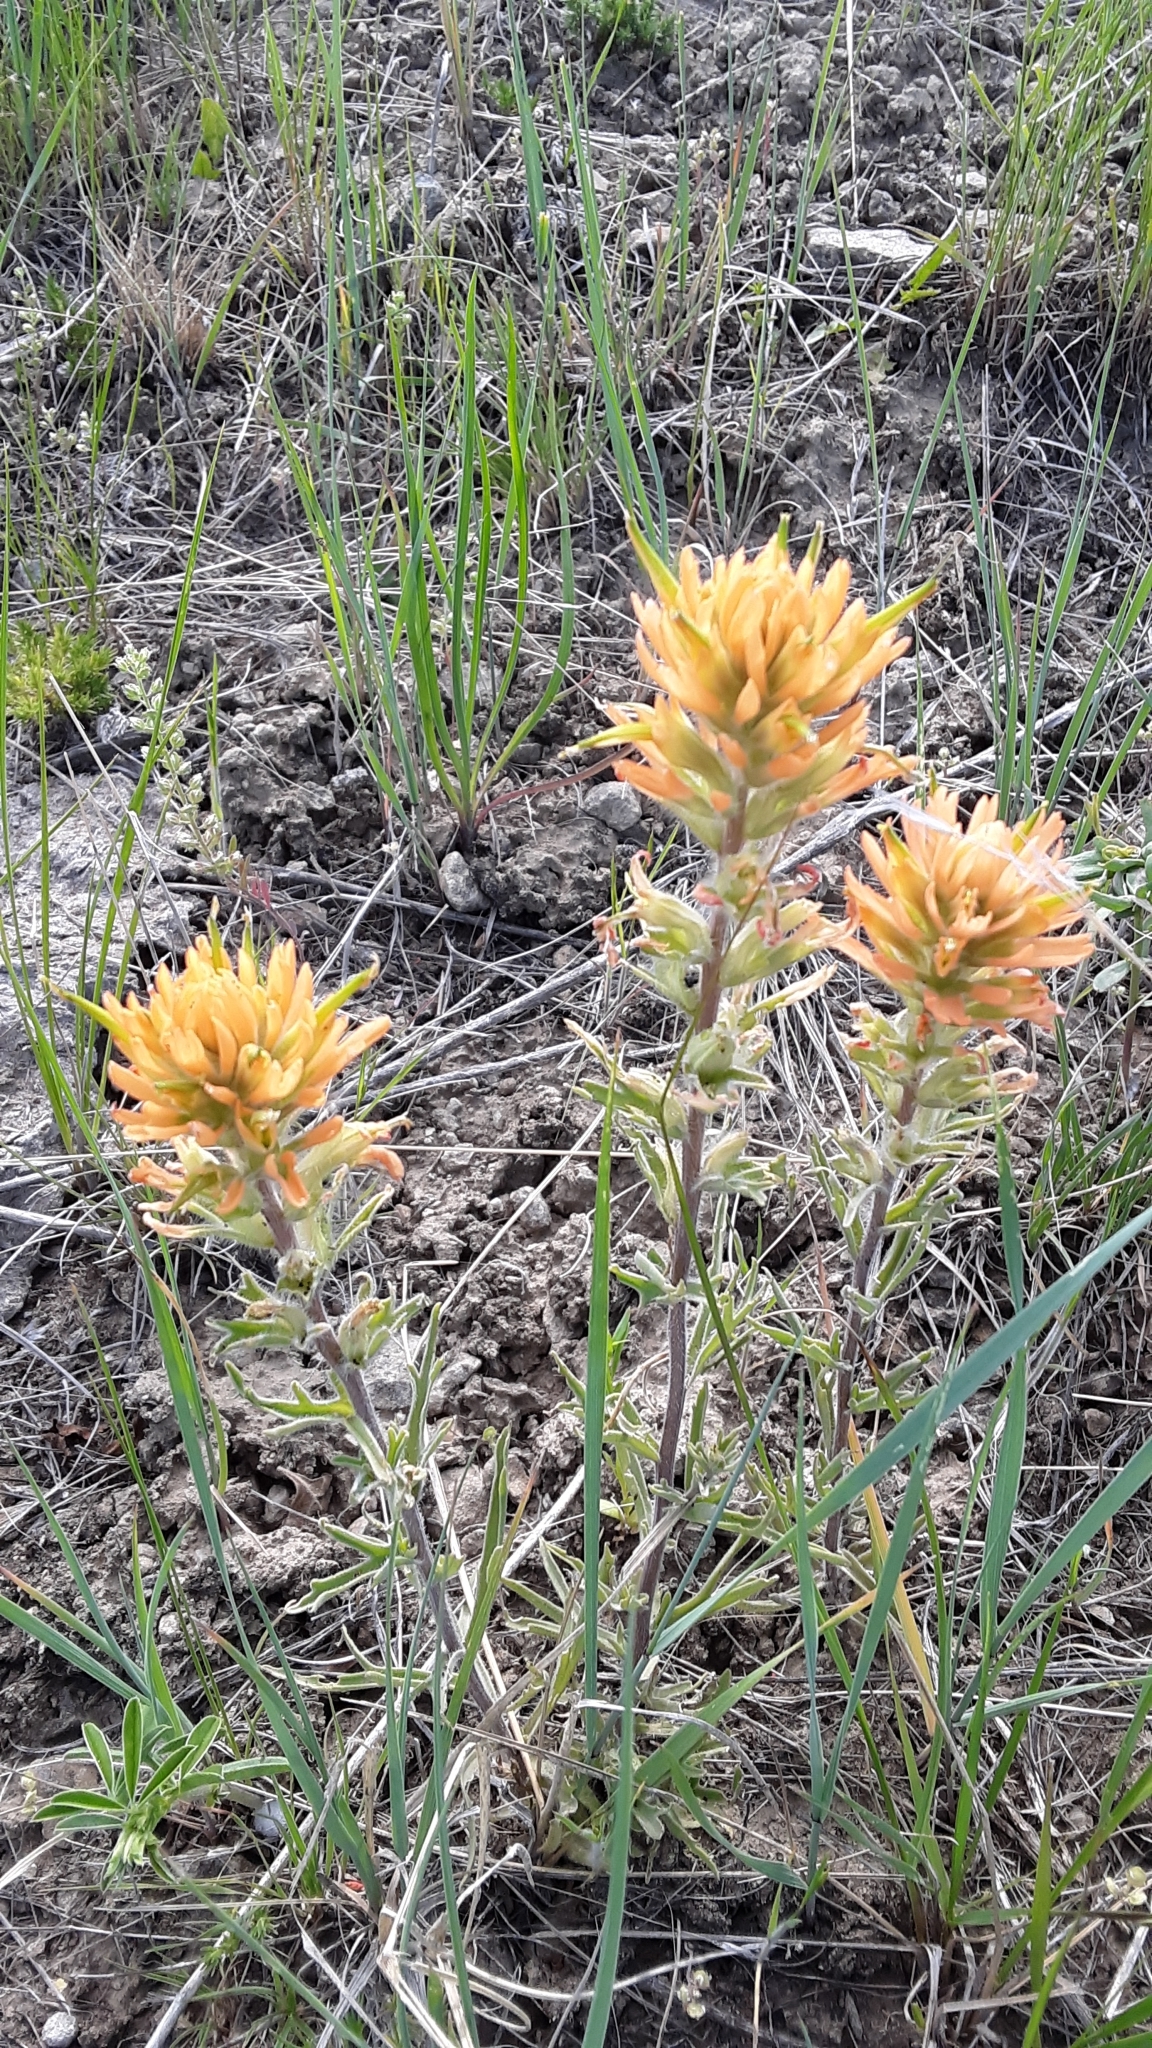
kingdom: Plantae
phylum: Tracheophyta
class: Magnoliopsida
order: Lamiales
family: Orobanchaceae
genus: Castilleja
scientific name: Castilleja hispida
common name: Bristly paintbrush
